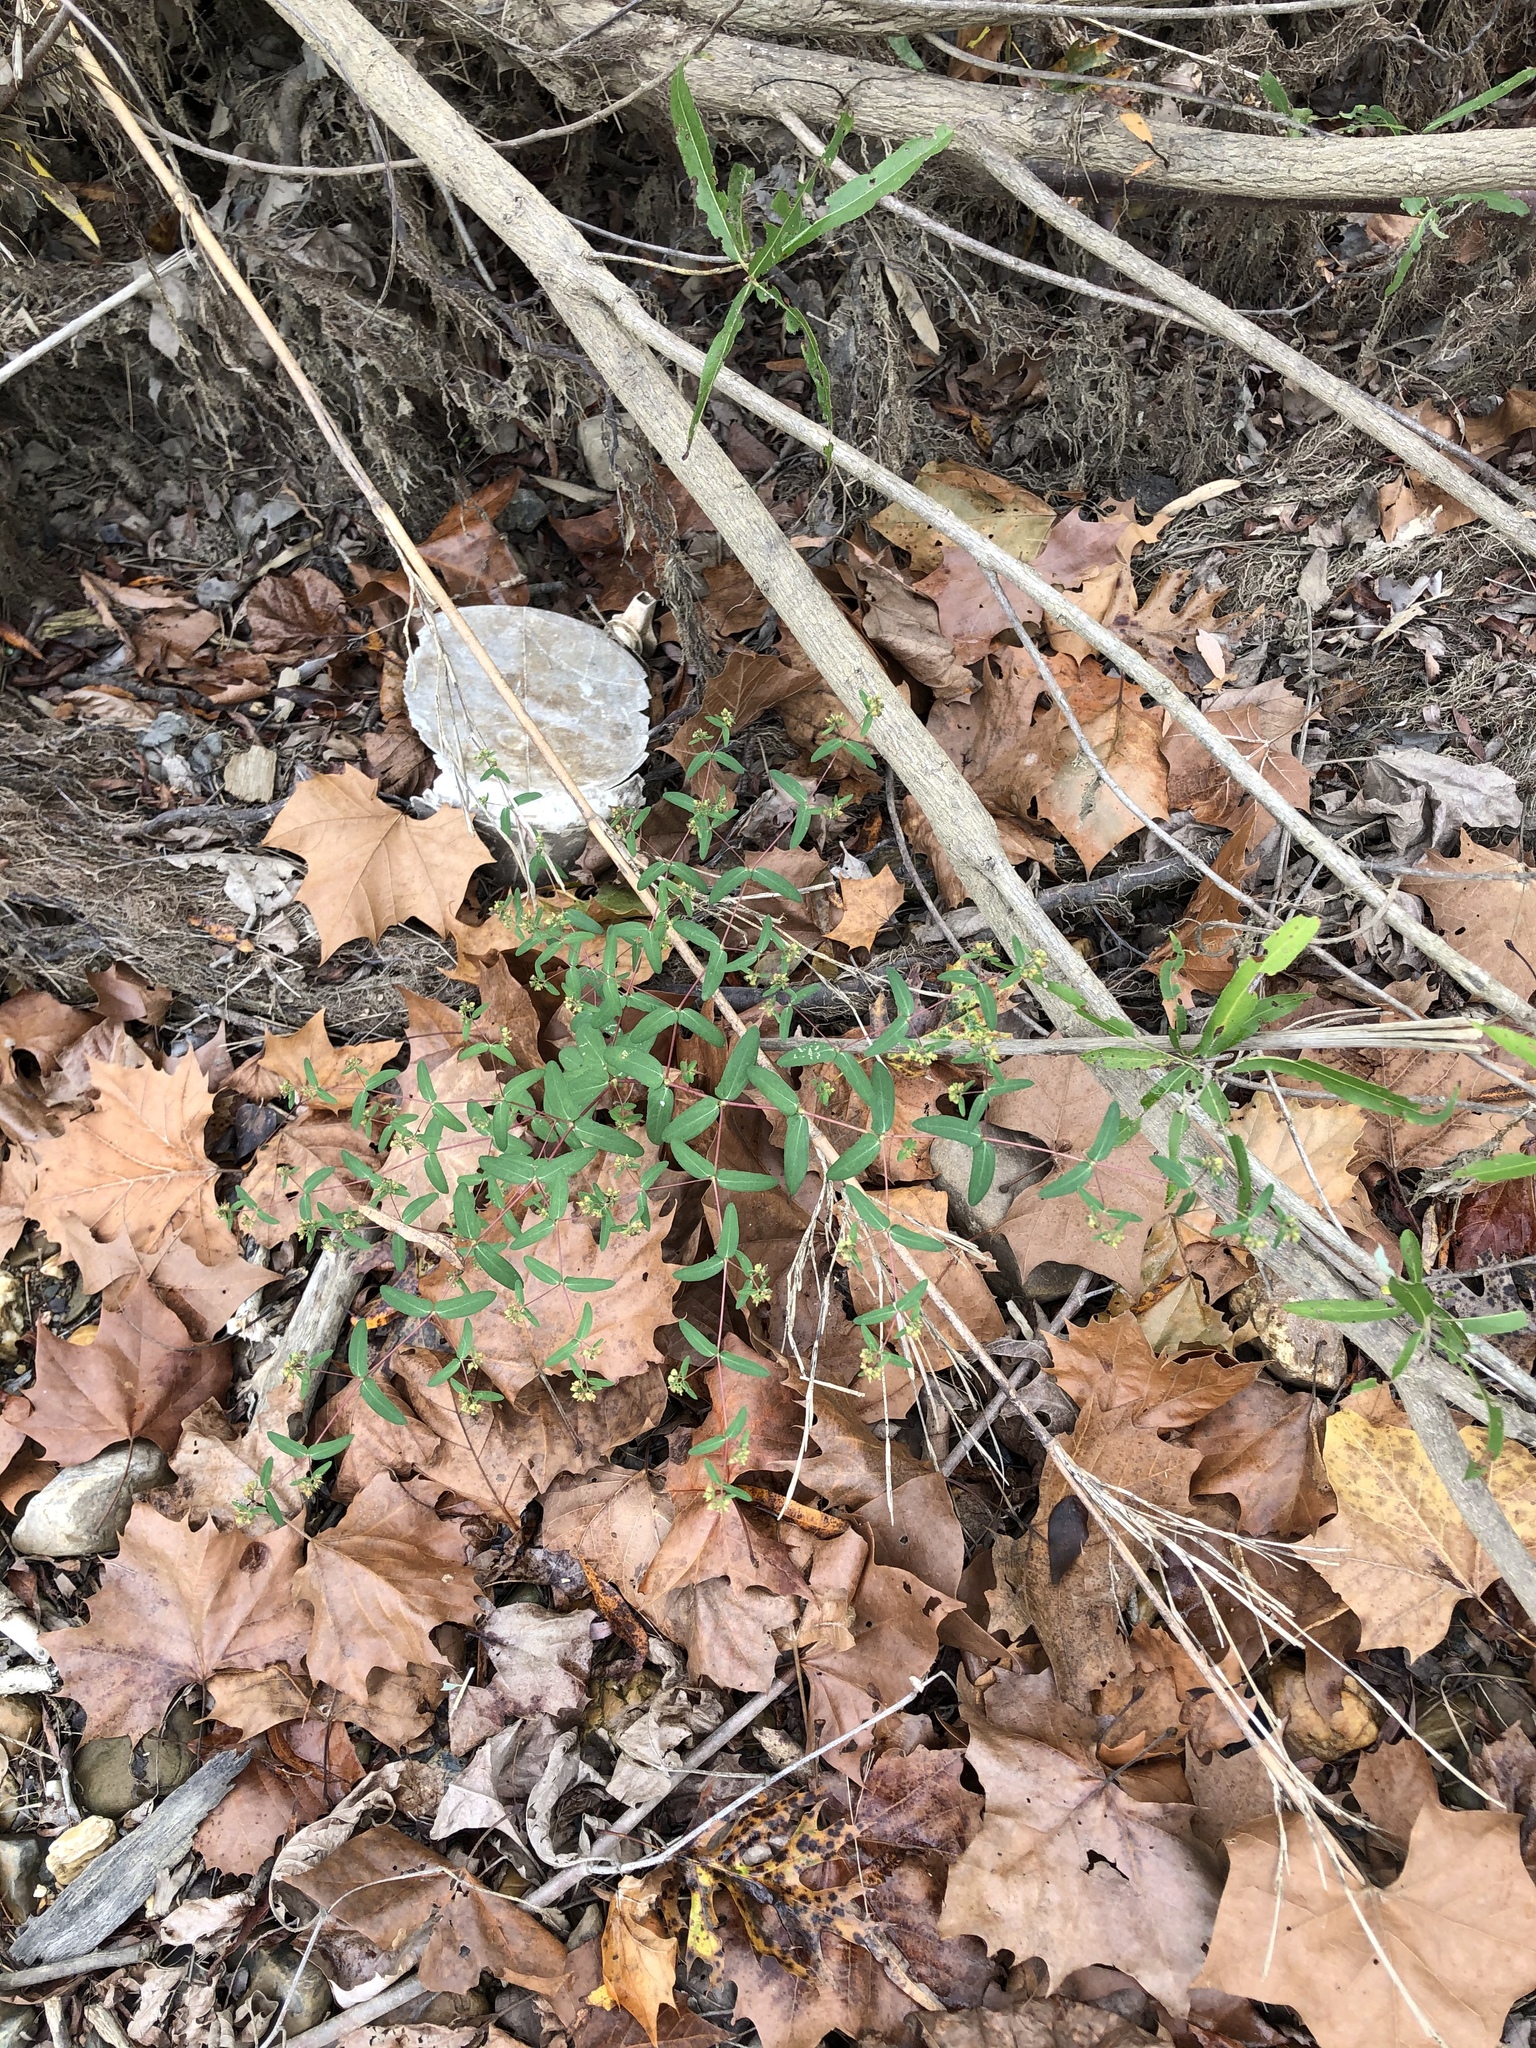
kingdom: Plantae
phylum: Tracheophyta
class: Magnoliopsida
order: Malpighiales
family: Euphorbiaceae
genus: Euphorbia
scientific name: Euphorbia nutans
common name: Eyebane
